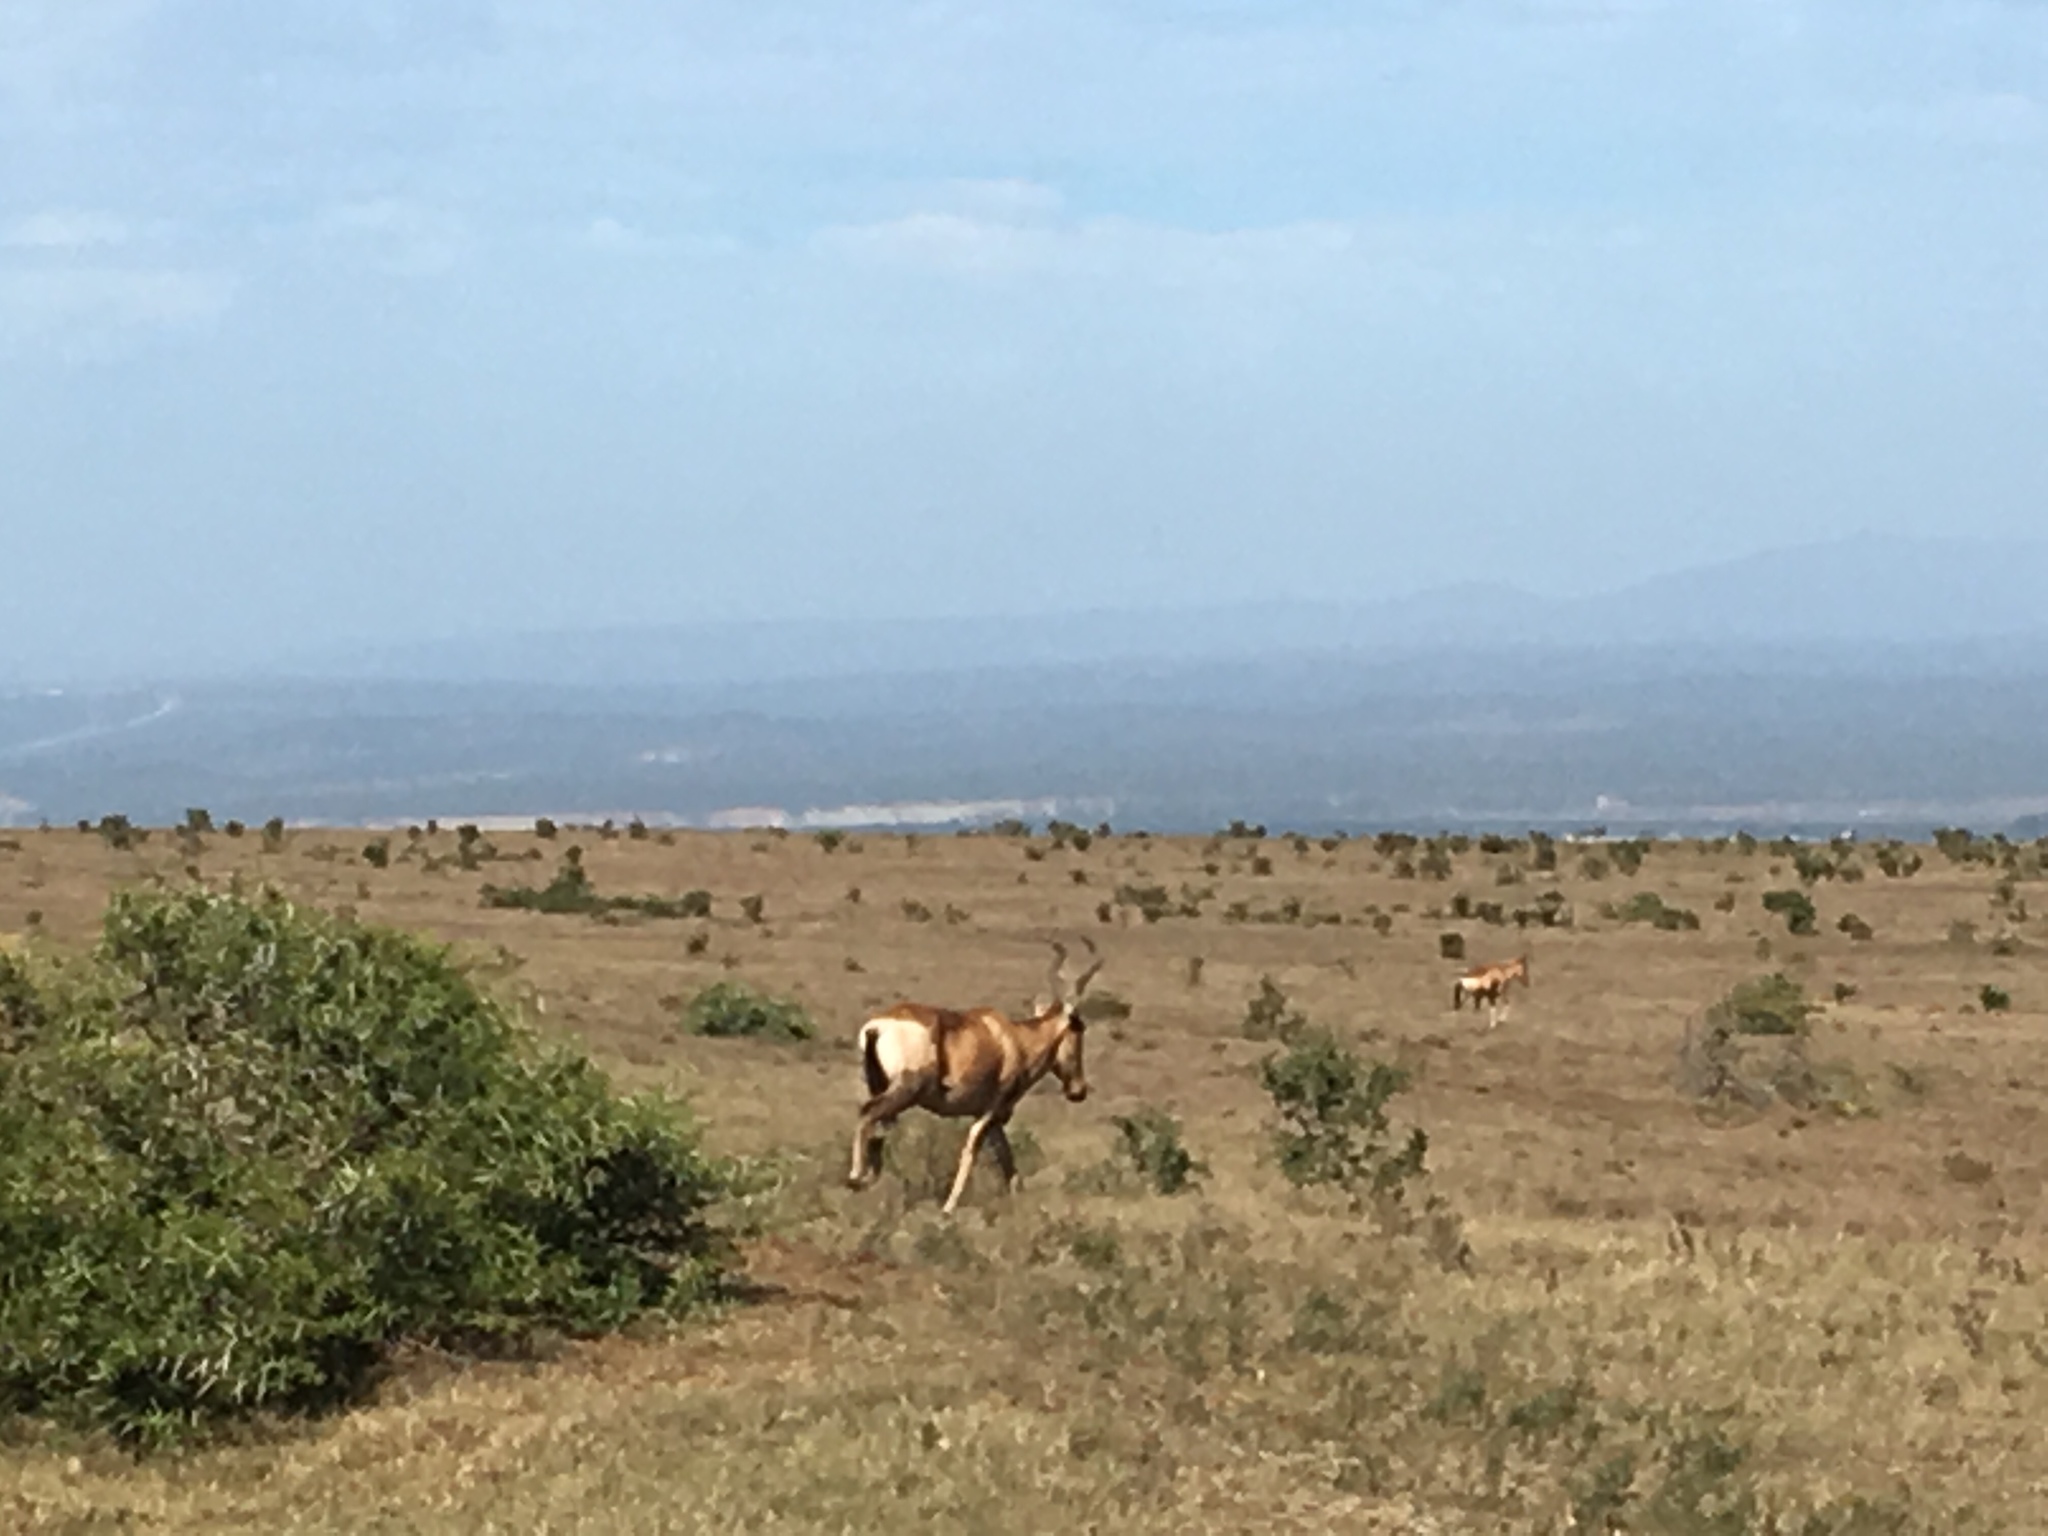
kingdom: Animalia
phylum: Chordata
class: Mammalia
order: Artiodactyla
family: Bovidae
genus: Alcelaphus
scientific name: Alcelaphus caama
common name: Red hartebeest
